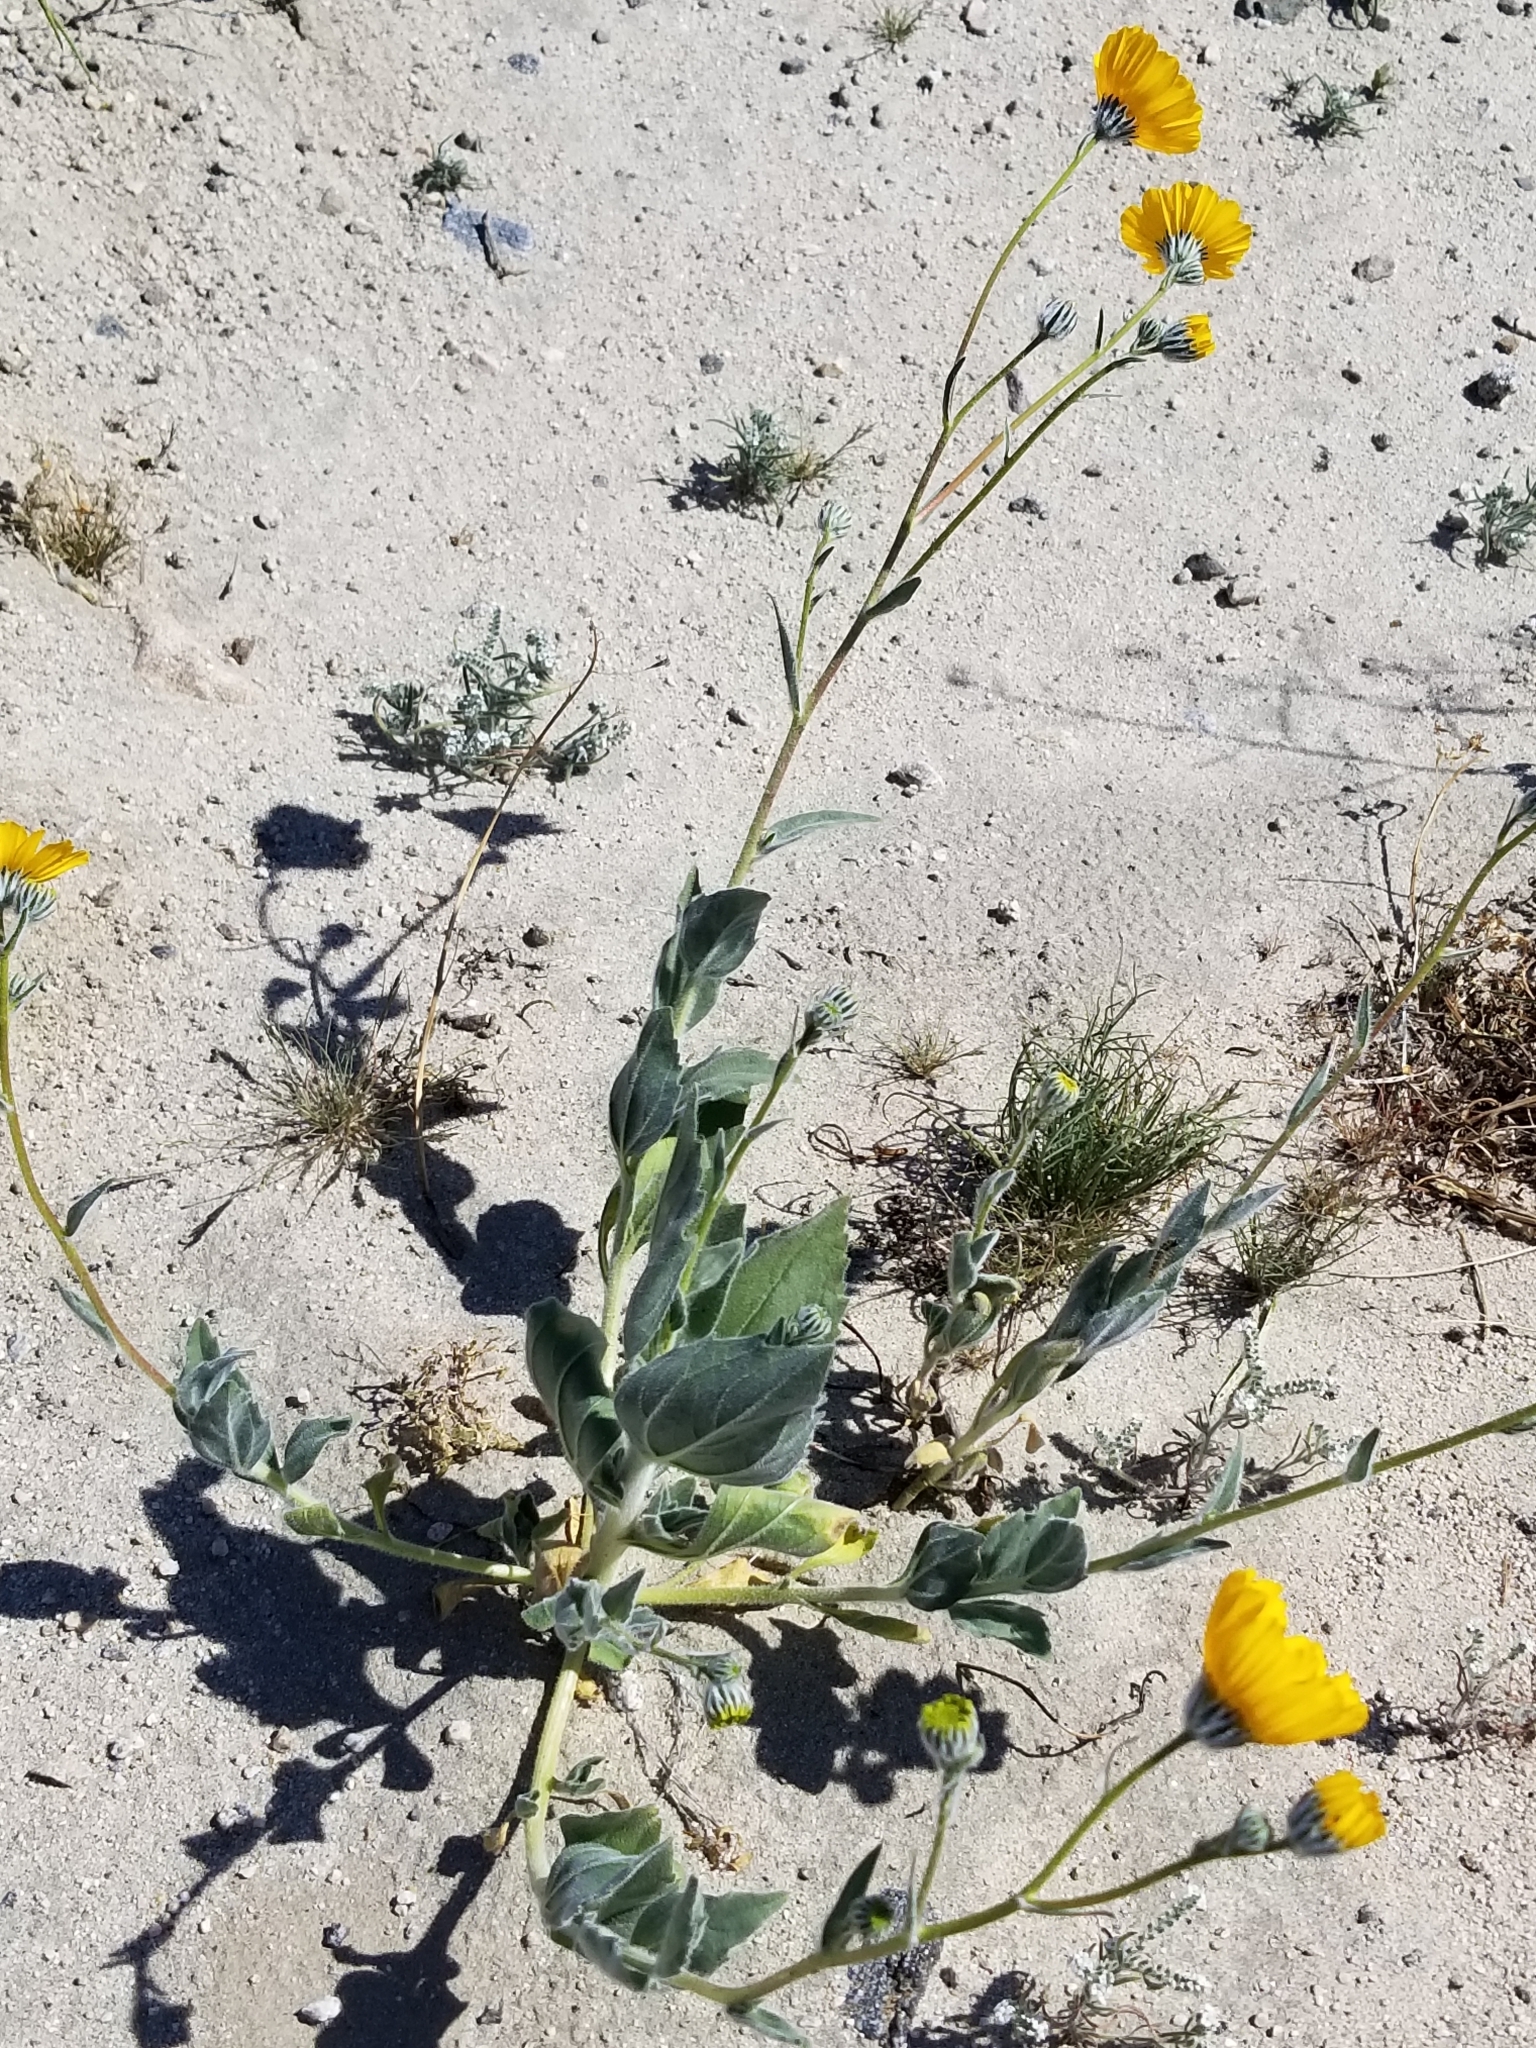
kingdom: Plantae
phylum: Tracheophyta
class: Magnoliopsida
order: Asterales
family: Asteraceae
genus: Geraea
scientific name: Geraea canescens
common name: Desert-gold
